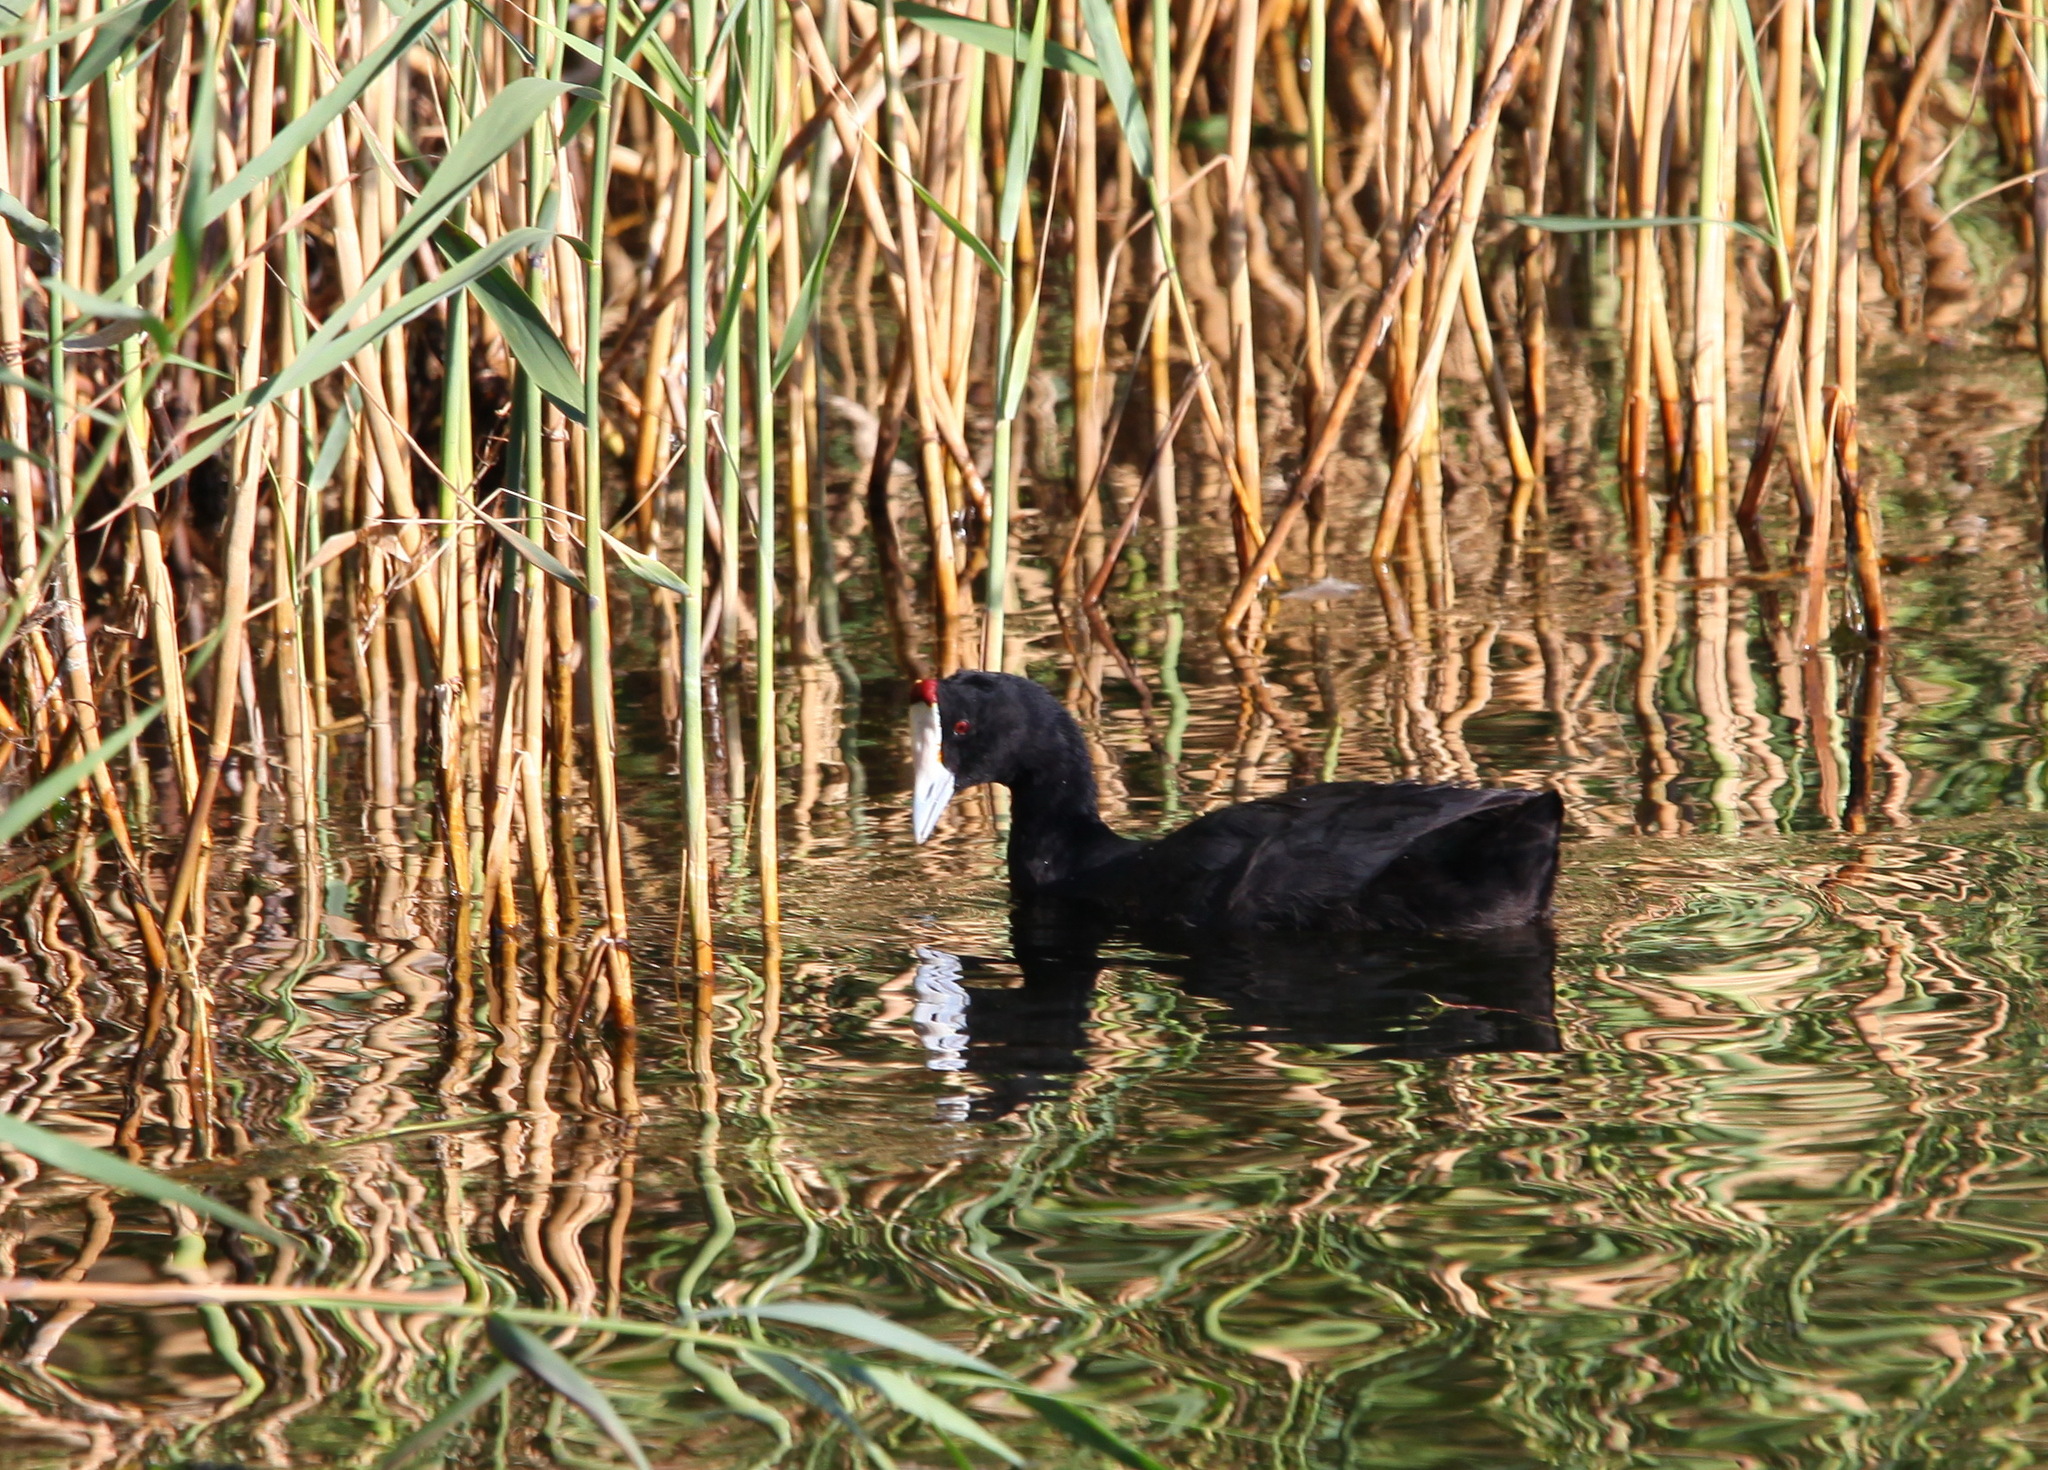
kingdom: Animalia
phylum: Chordata
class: Aves
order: Gruiformes
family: Rallidae
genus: Fulica
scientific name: Fulica cristata
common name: Red-knobbed coot
